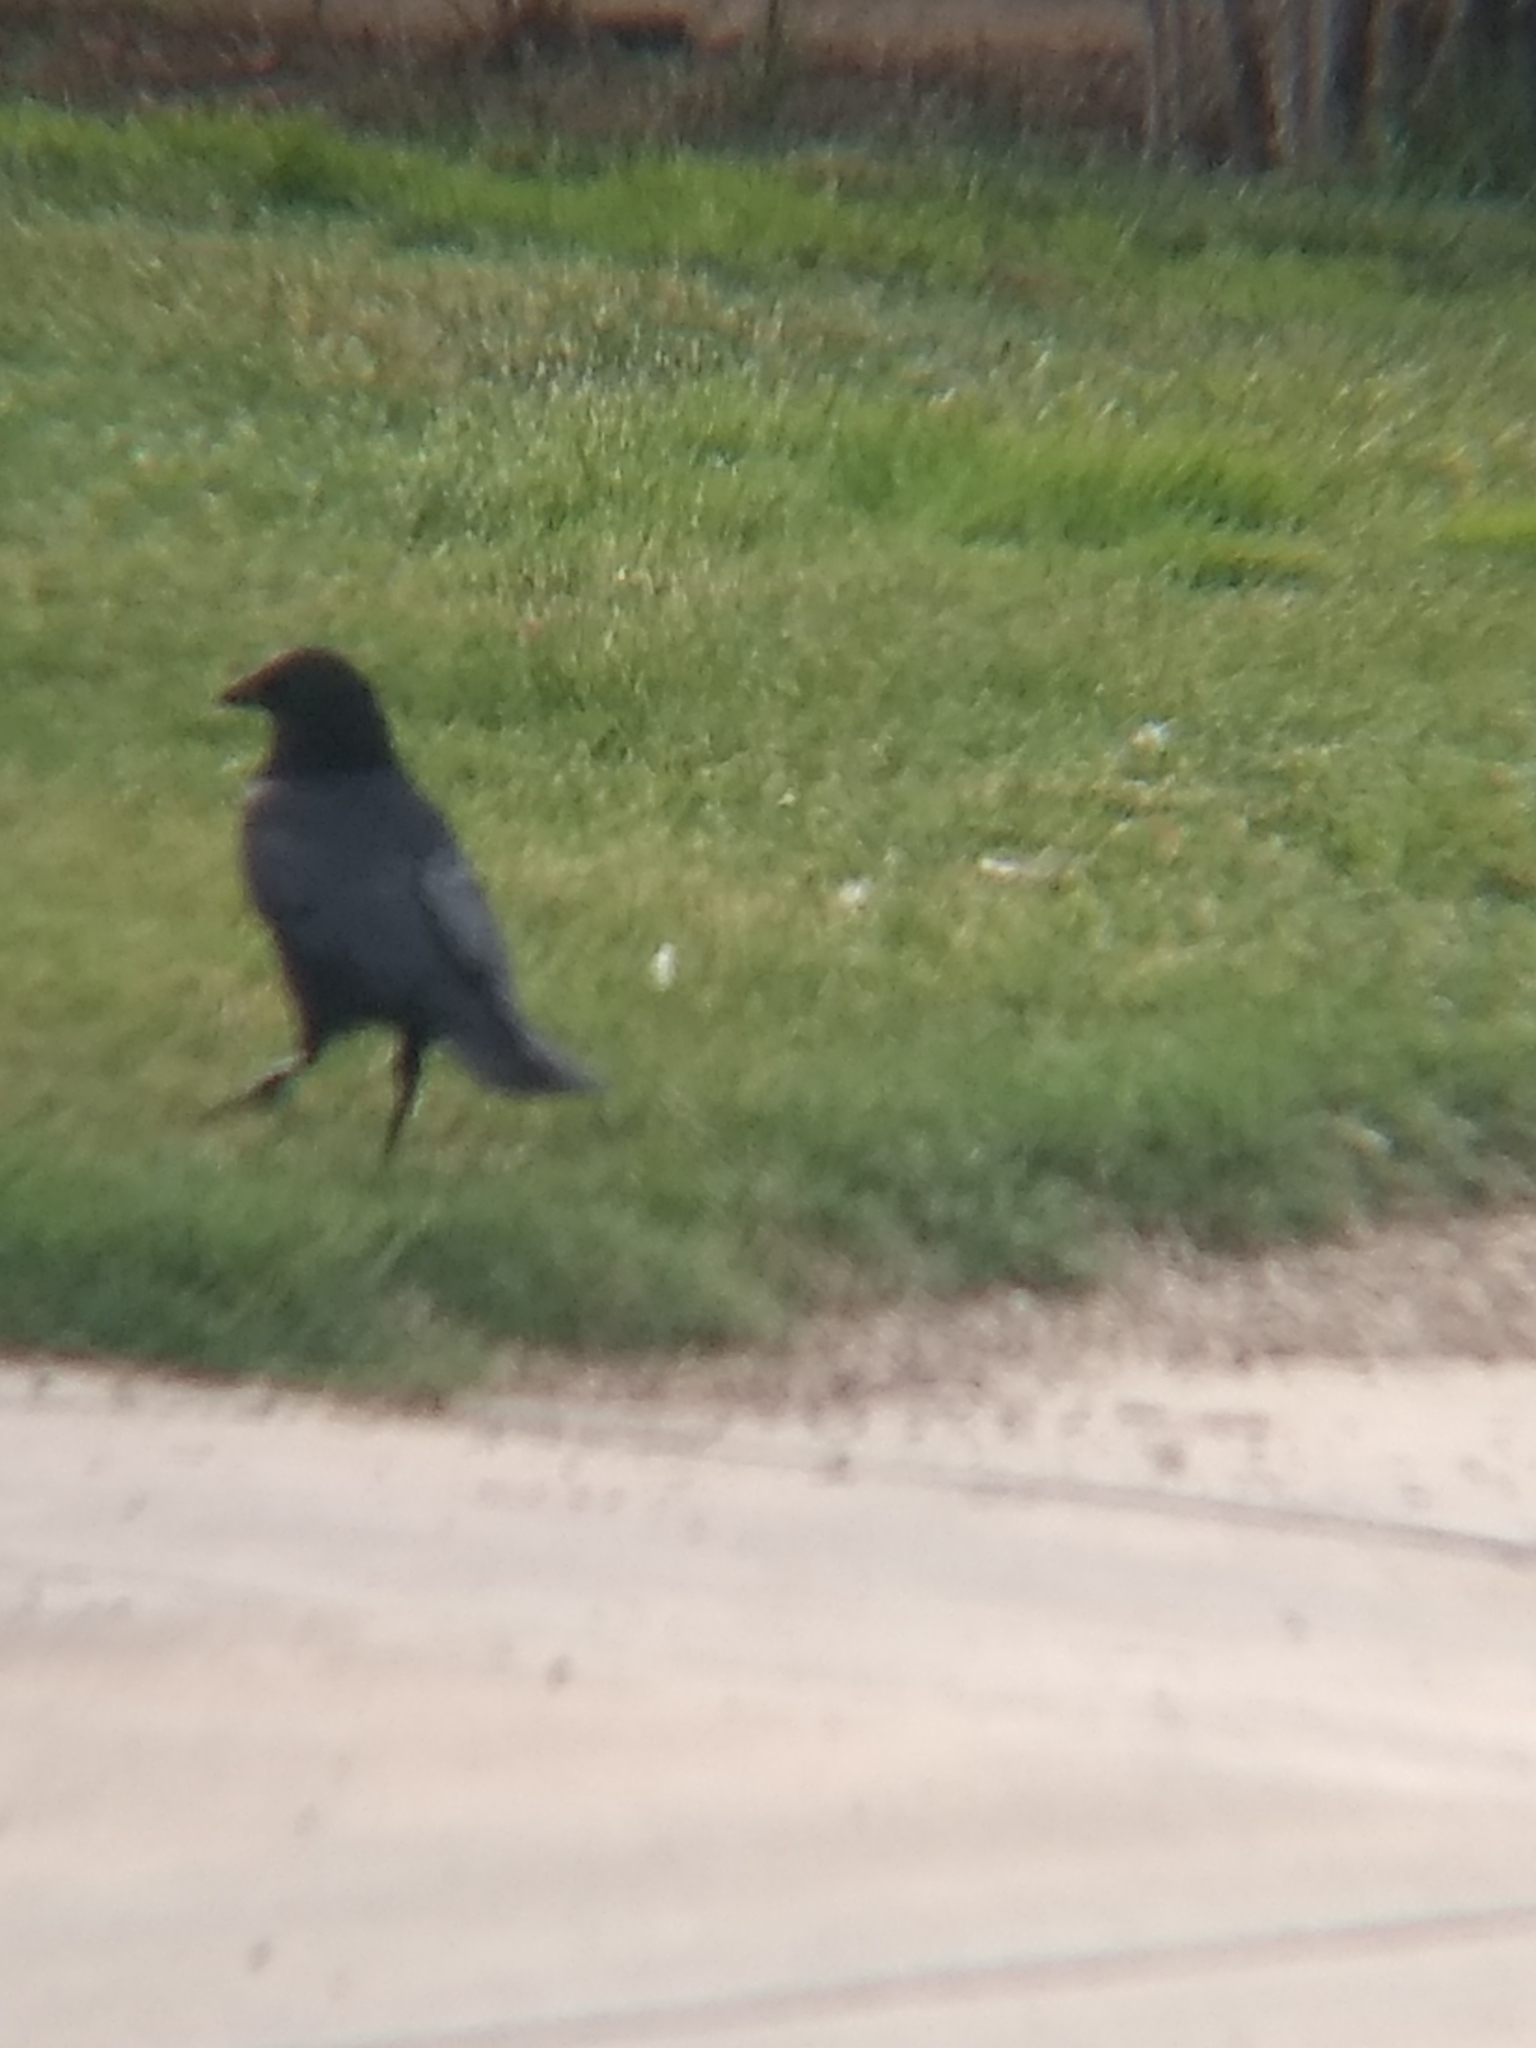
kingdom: Animalia
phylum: Chordata
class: Aves
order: Passeriformes
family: Corvidae
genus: Corvus
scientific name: Corvus brachyrhynchos
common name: American crow
